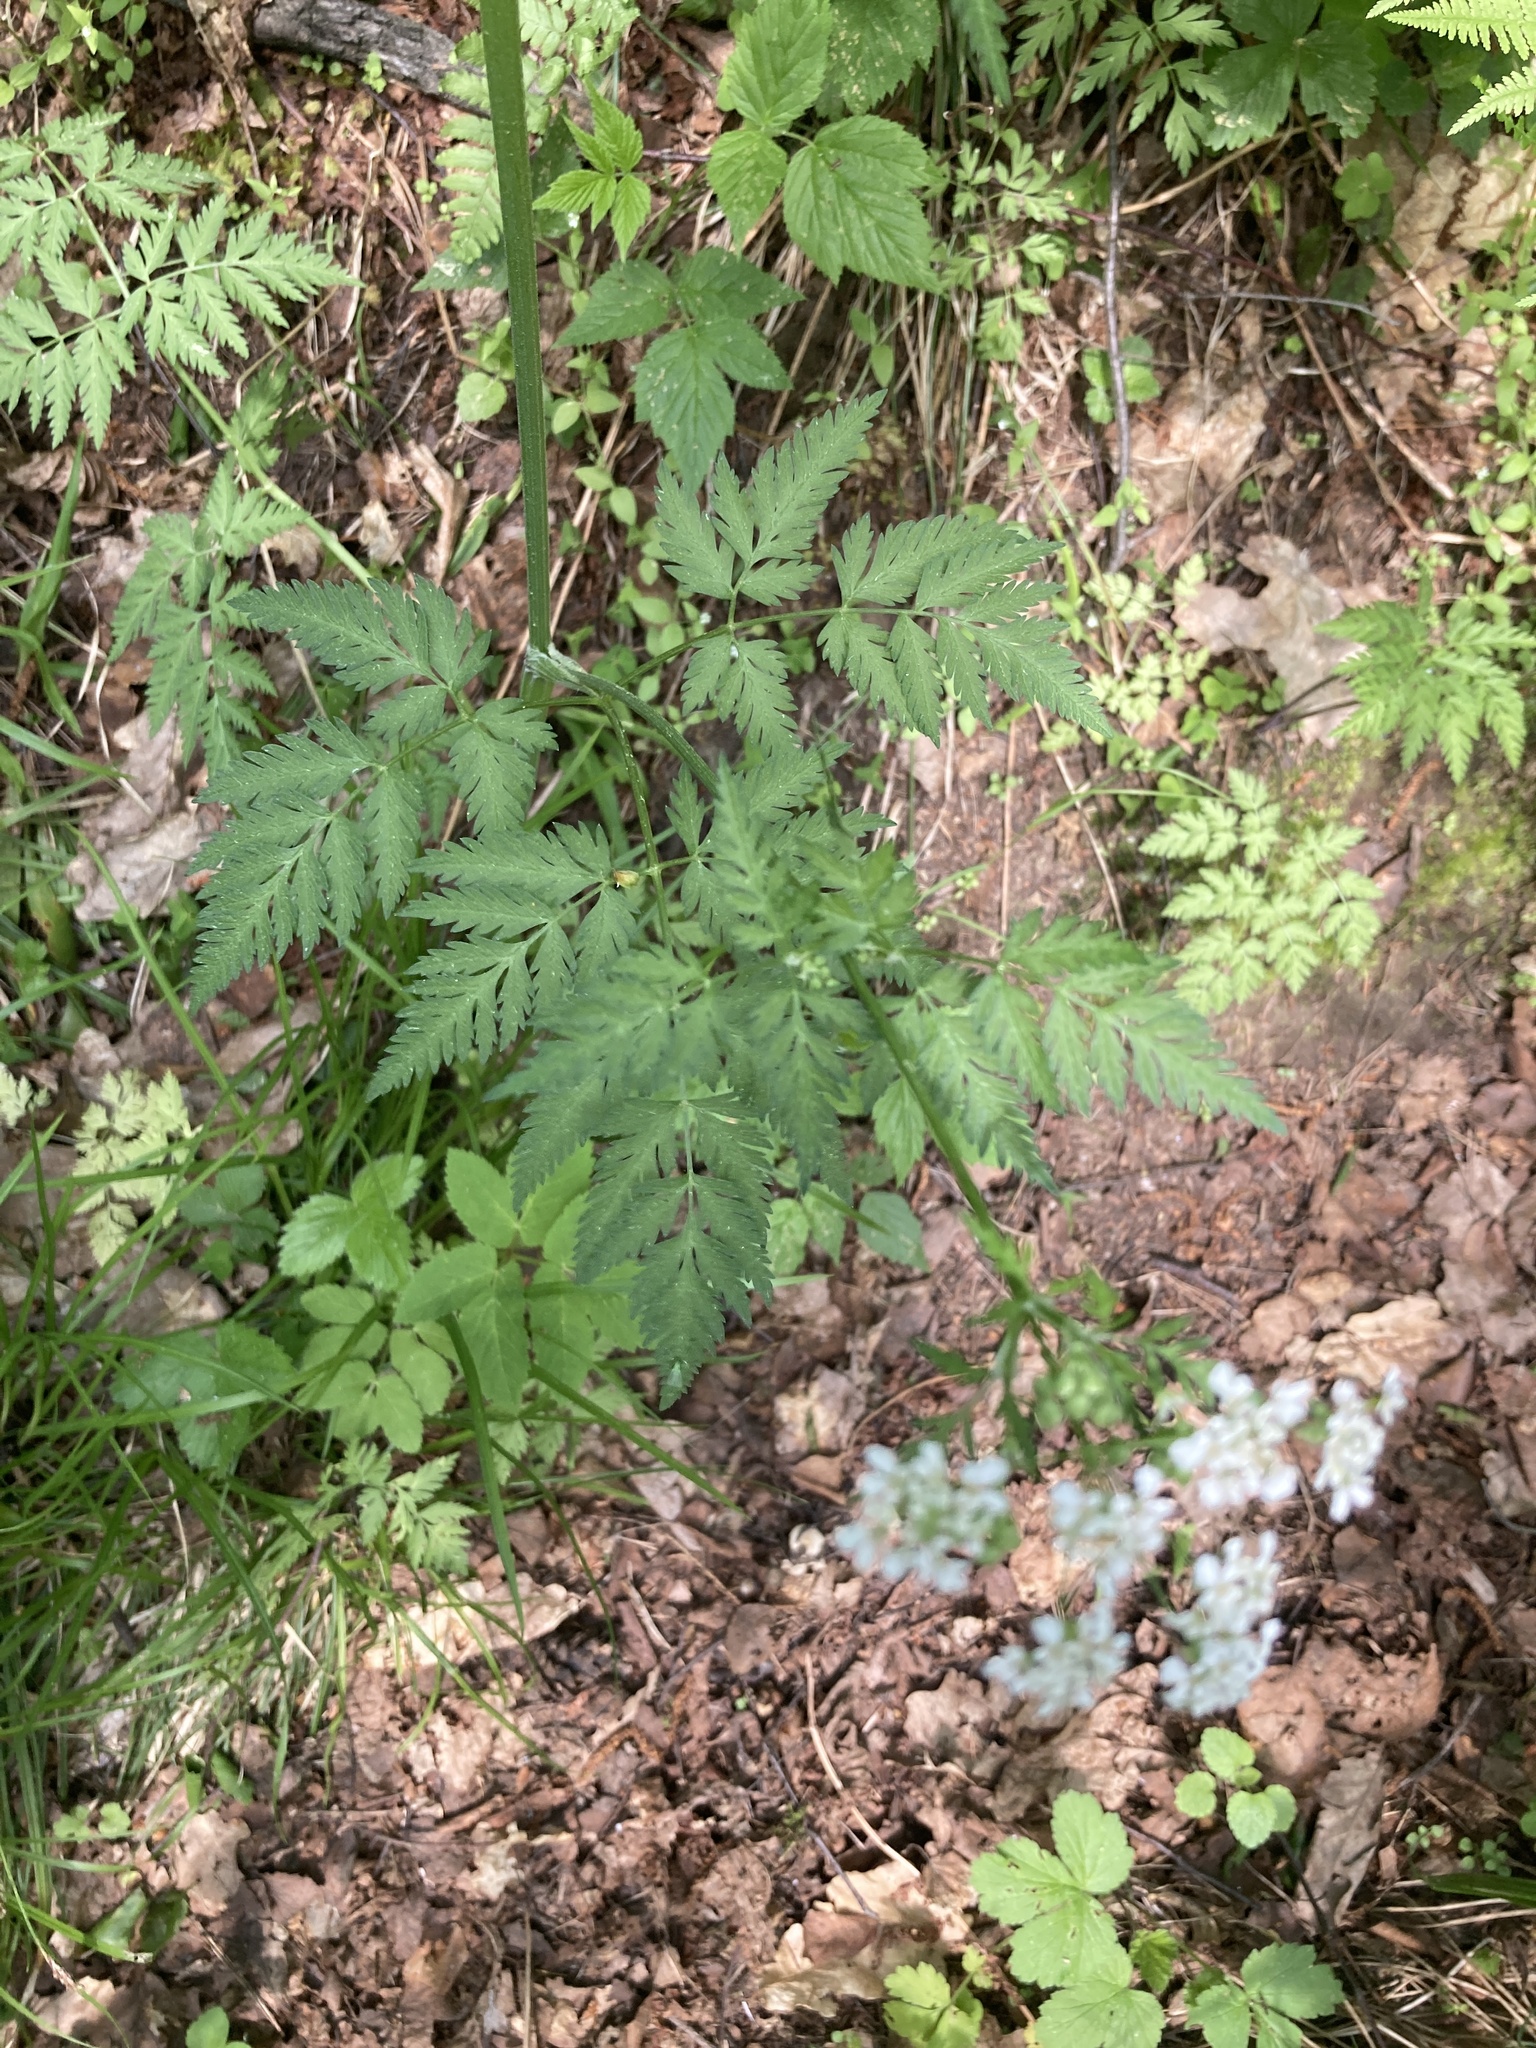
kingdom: Plantae
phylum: Tracheophyta
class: Magnoliopsida
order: Apiales
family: Apiaceae
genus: Anthriscus
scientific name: Anthriscus sylvestris
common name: Cow parsley
